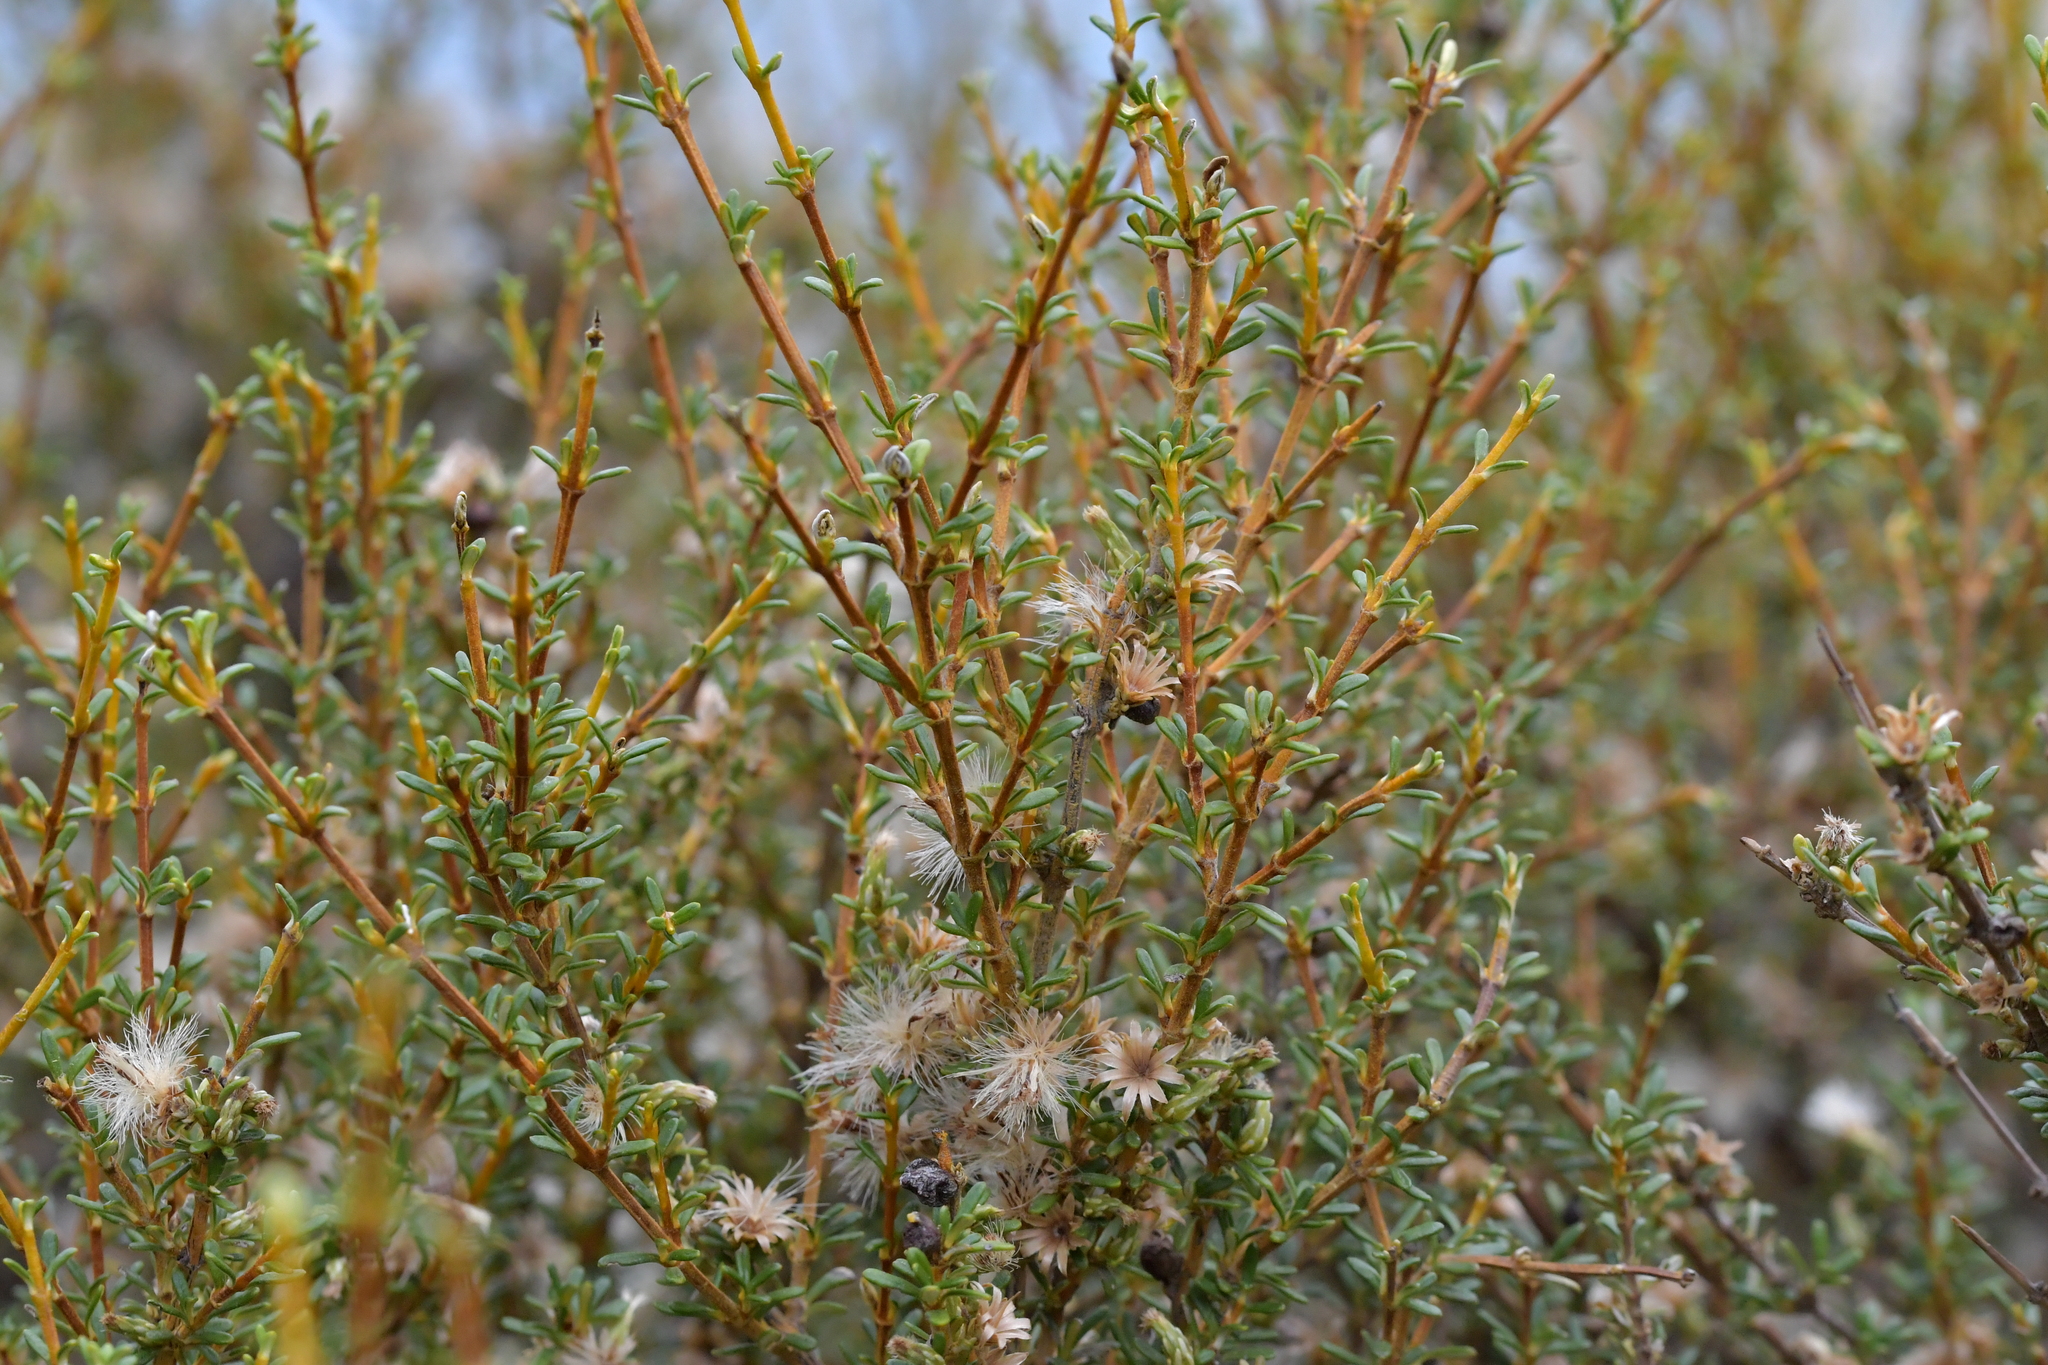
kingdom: Plantae
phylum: Tracheophyta
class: Magnoliopsida
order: Asterales
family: Asteraceae
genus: Olearia
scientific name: Olearia solandri
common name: Coastal daisybush
